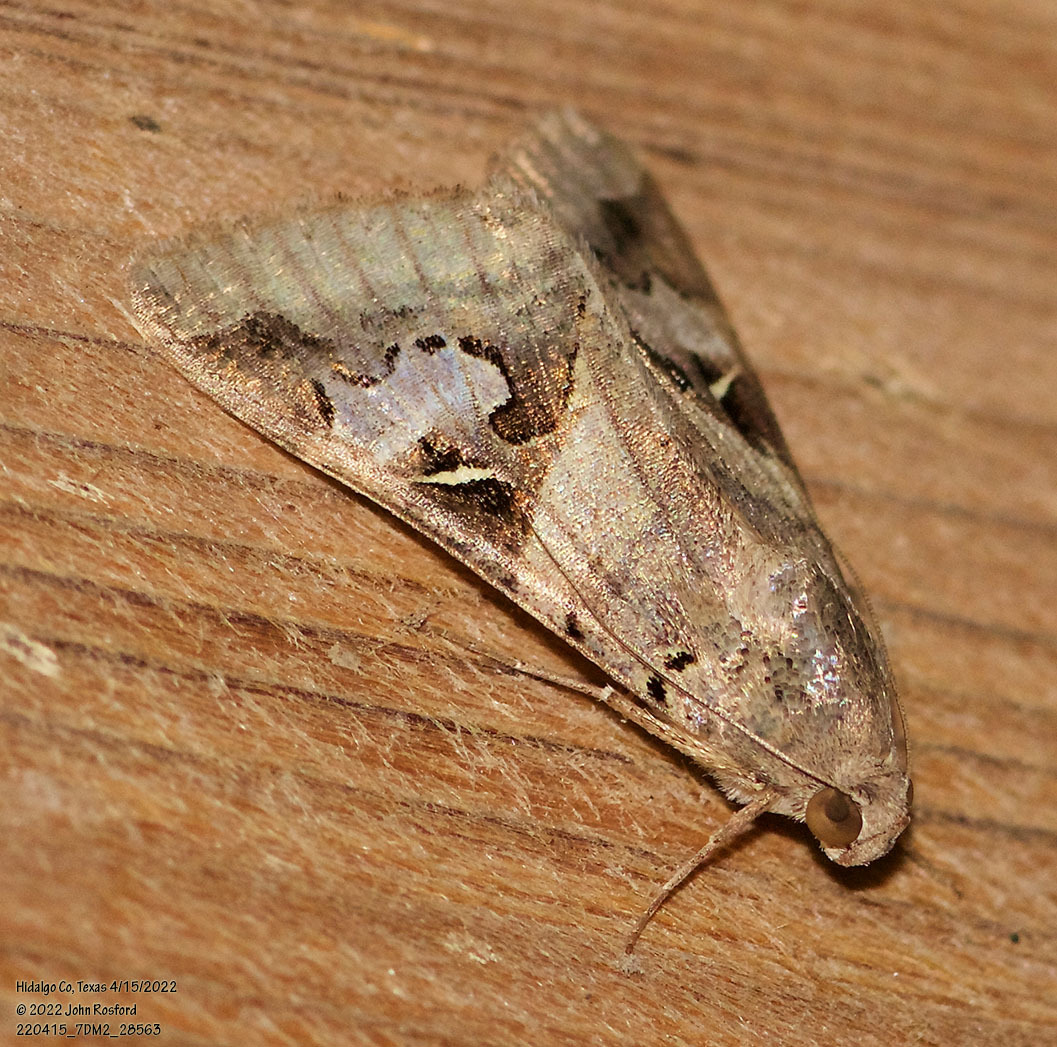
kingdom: Animalia
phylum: Arthropoda
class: Insecta
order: Lepidoptera
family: Erebidae
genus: Melipotis
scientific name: Melipotis indomita
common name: Moth
